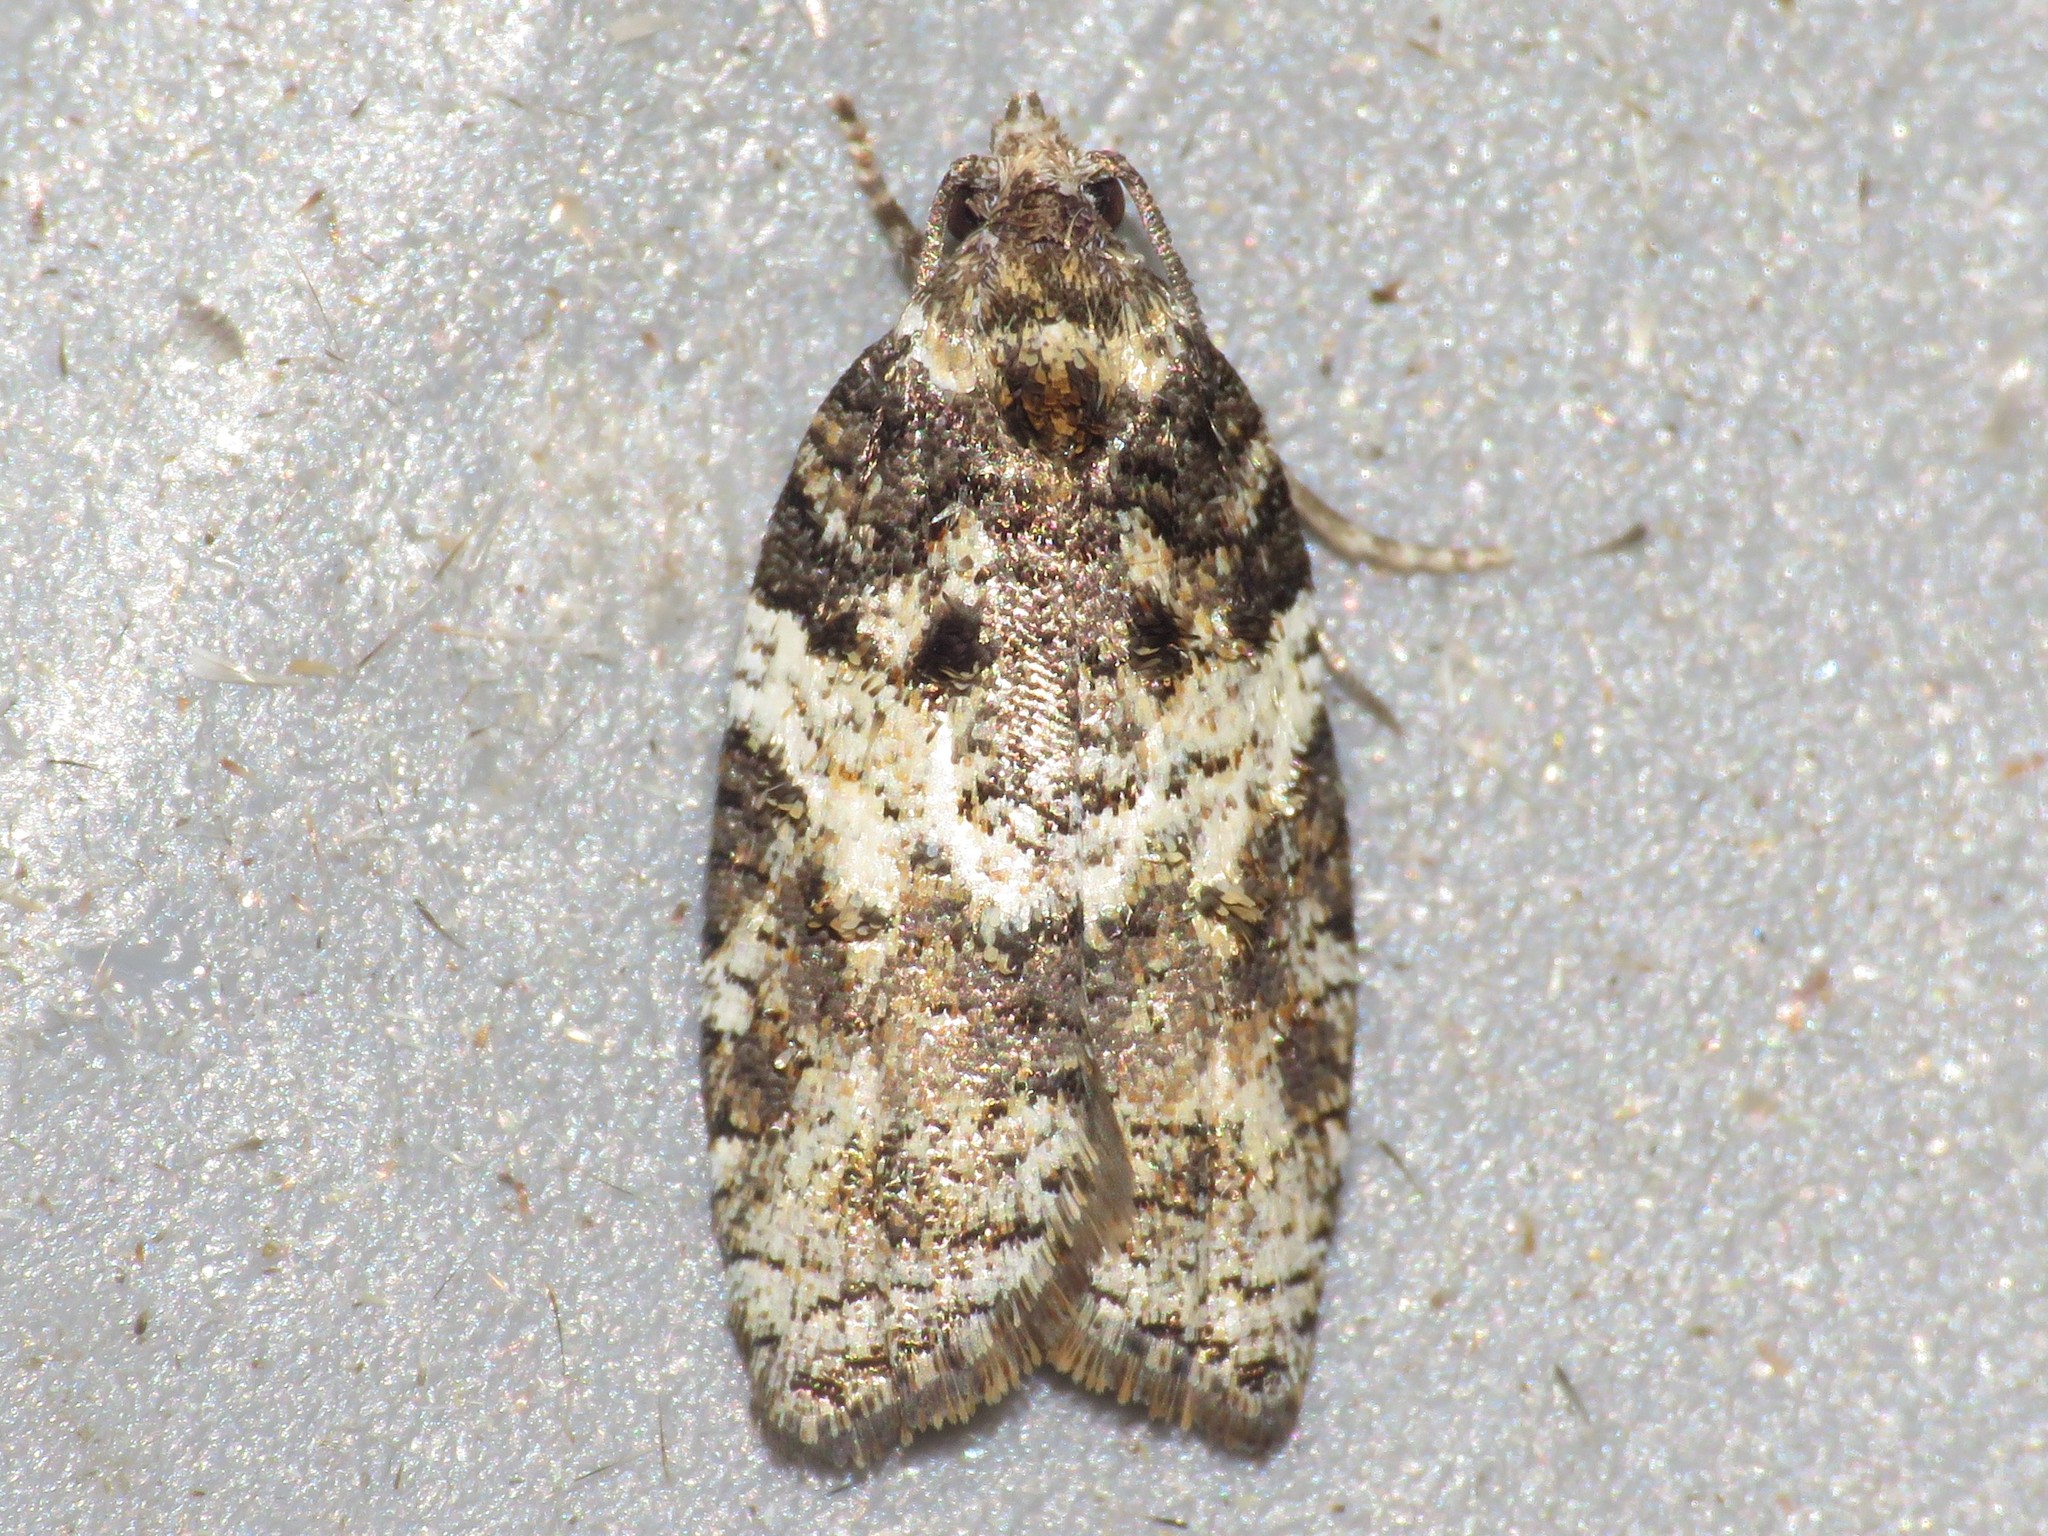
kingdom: Animalia
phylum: Arthropoda
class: Insecta
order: Lepidoptera
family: Tortricidae
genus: Acleris
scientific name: Acleris variana
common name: Eastern black-headed budworm moth
